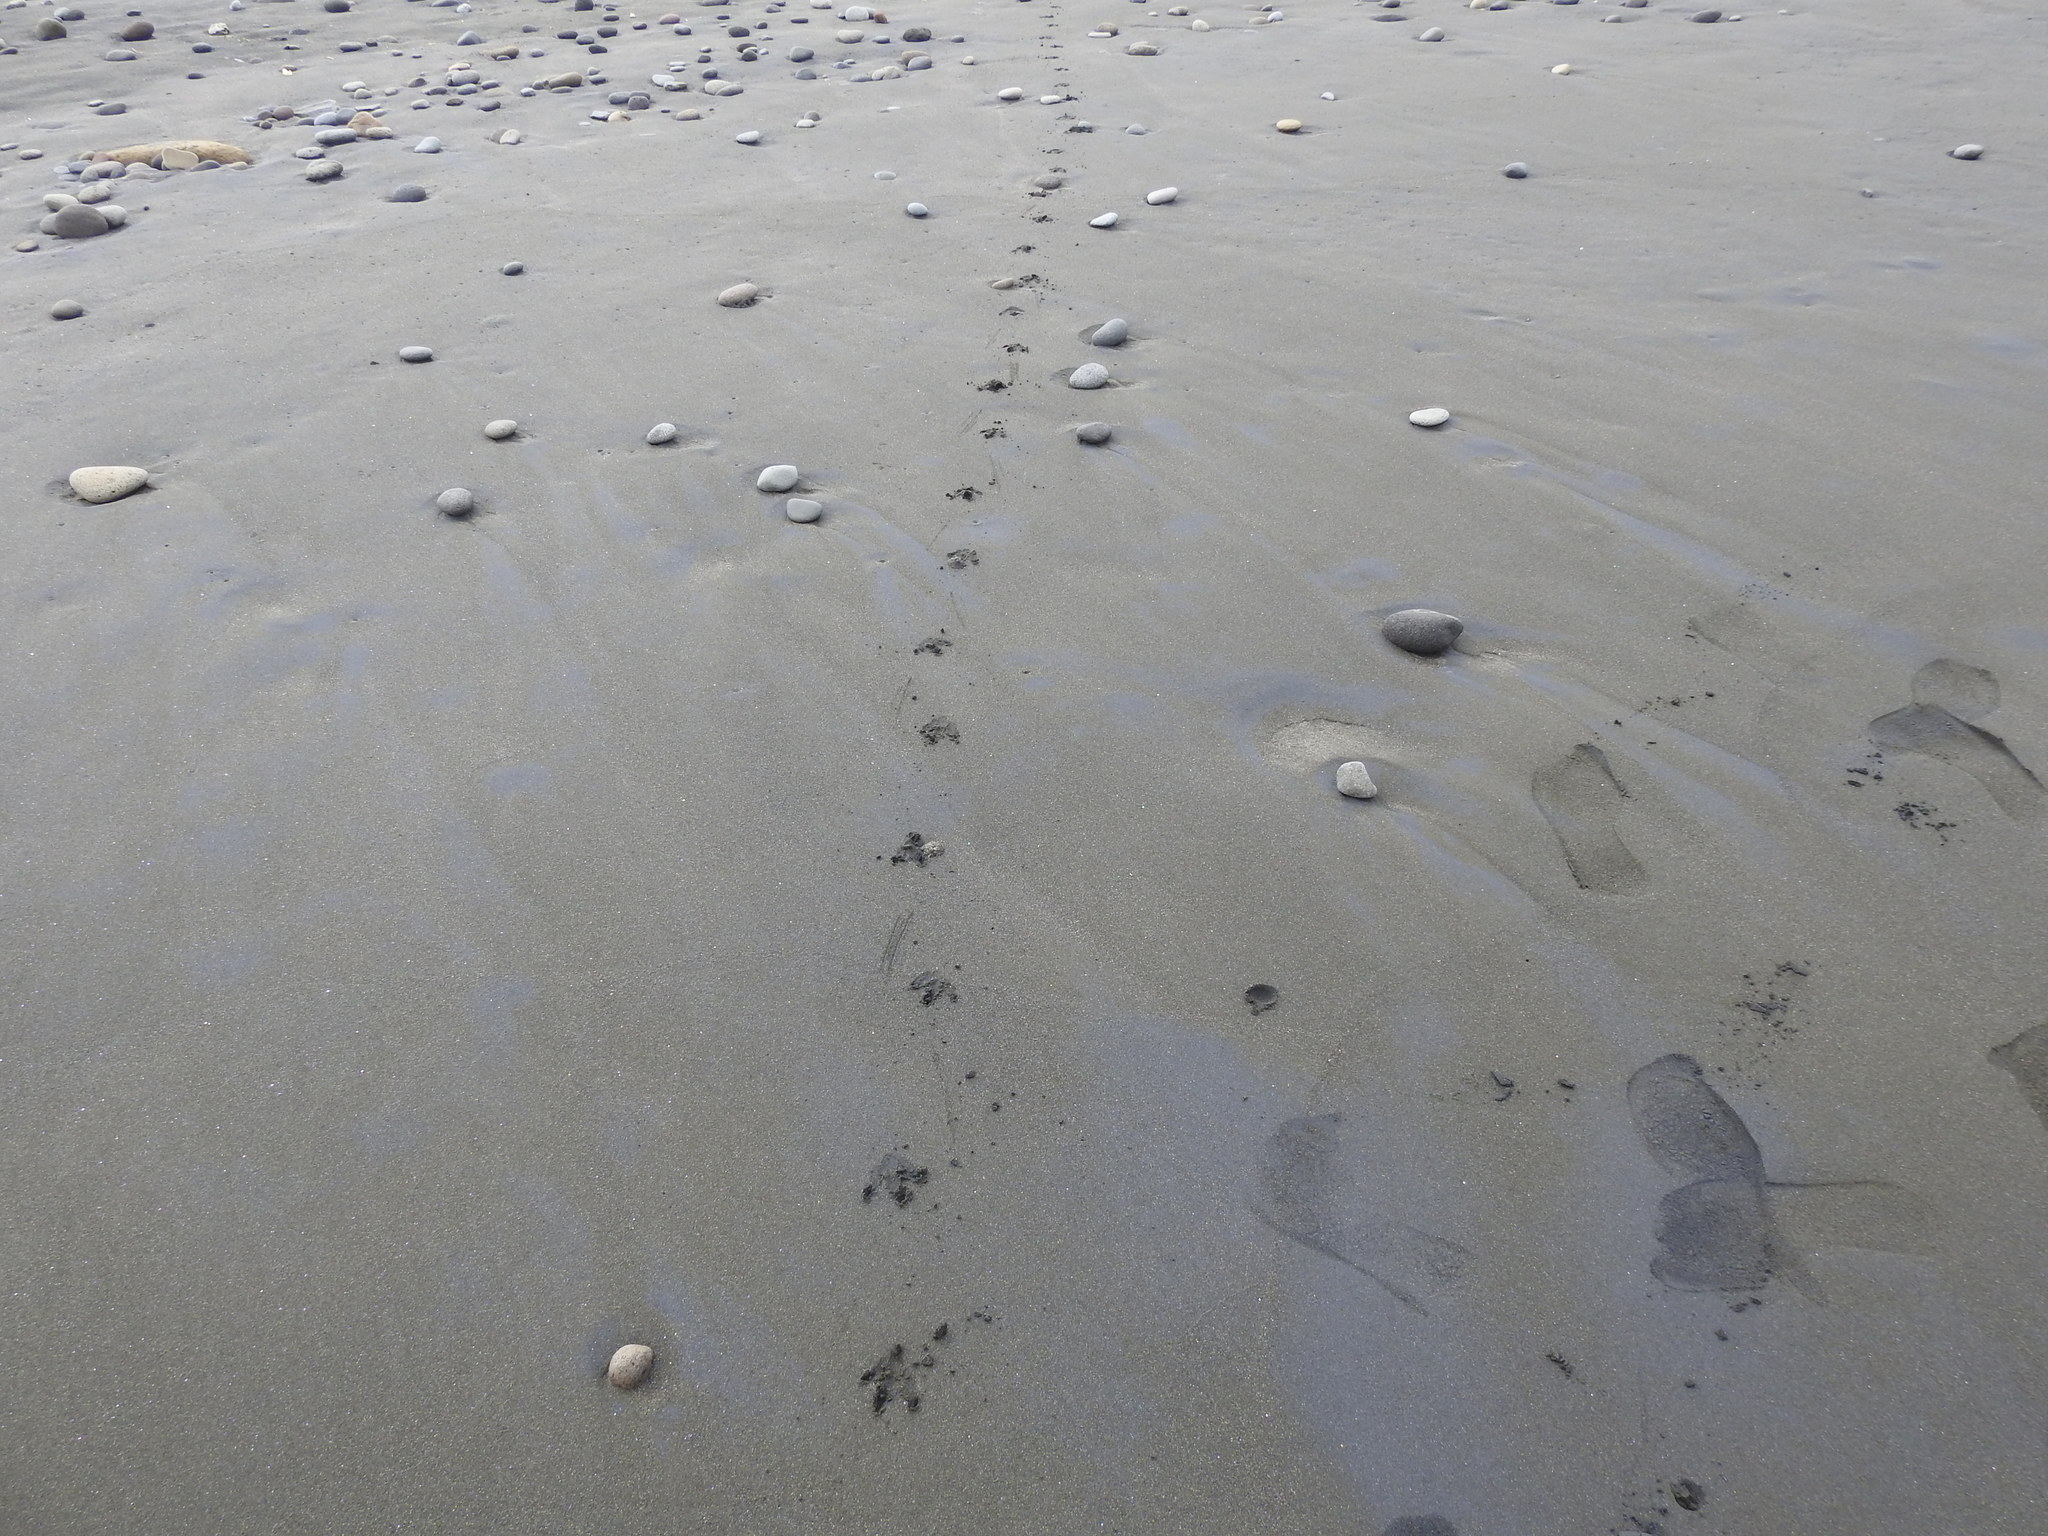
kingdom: Animalia
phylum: Chordata
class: Aves
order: Sphenisciformes
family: Spheniscidae
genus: Eudyptula
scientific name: Eudyptula minor
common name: Little penguin
